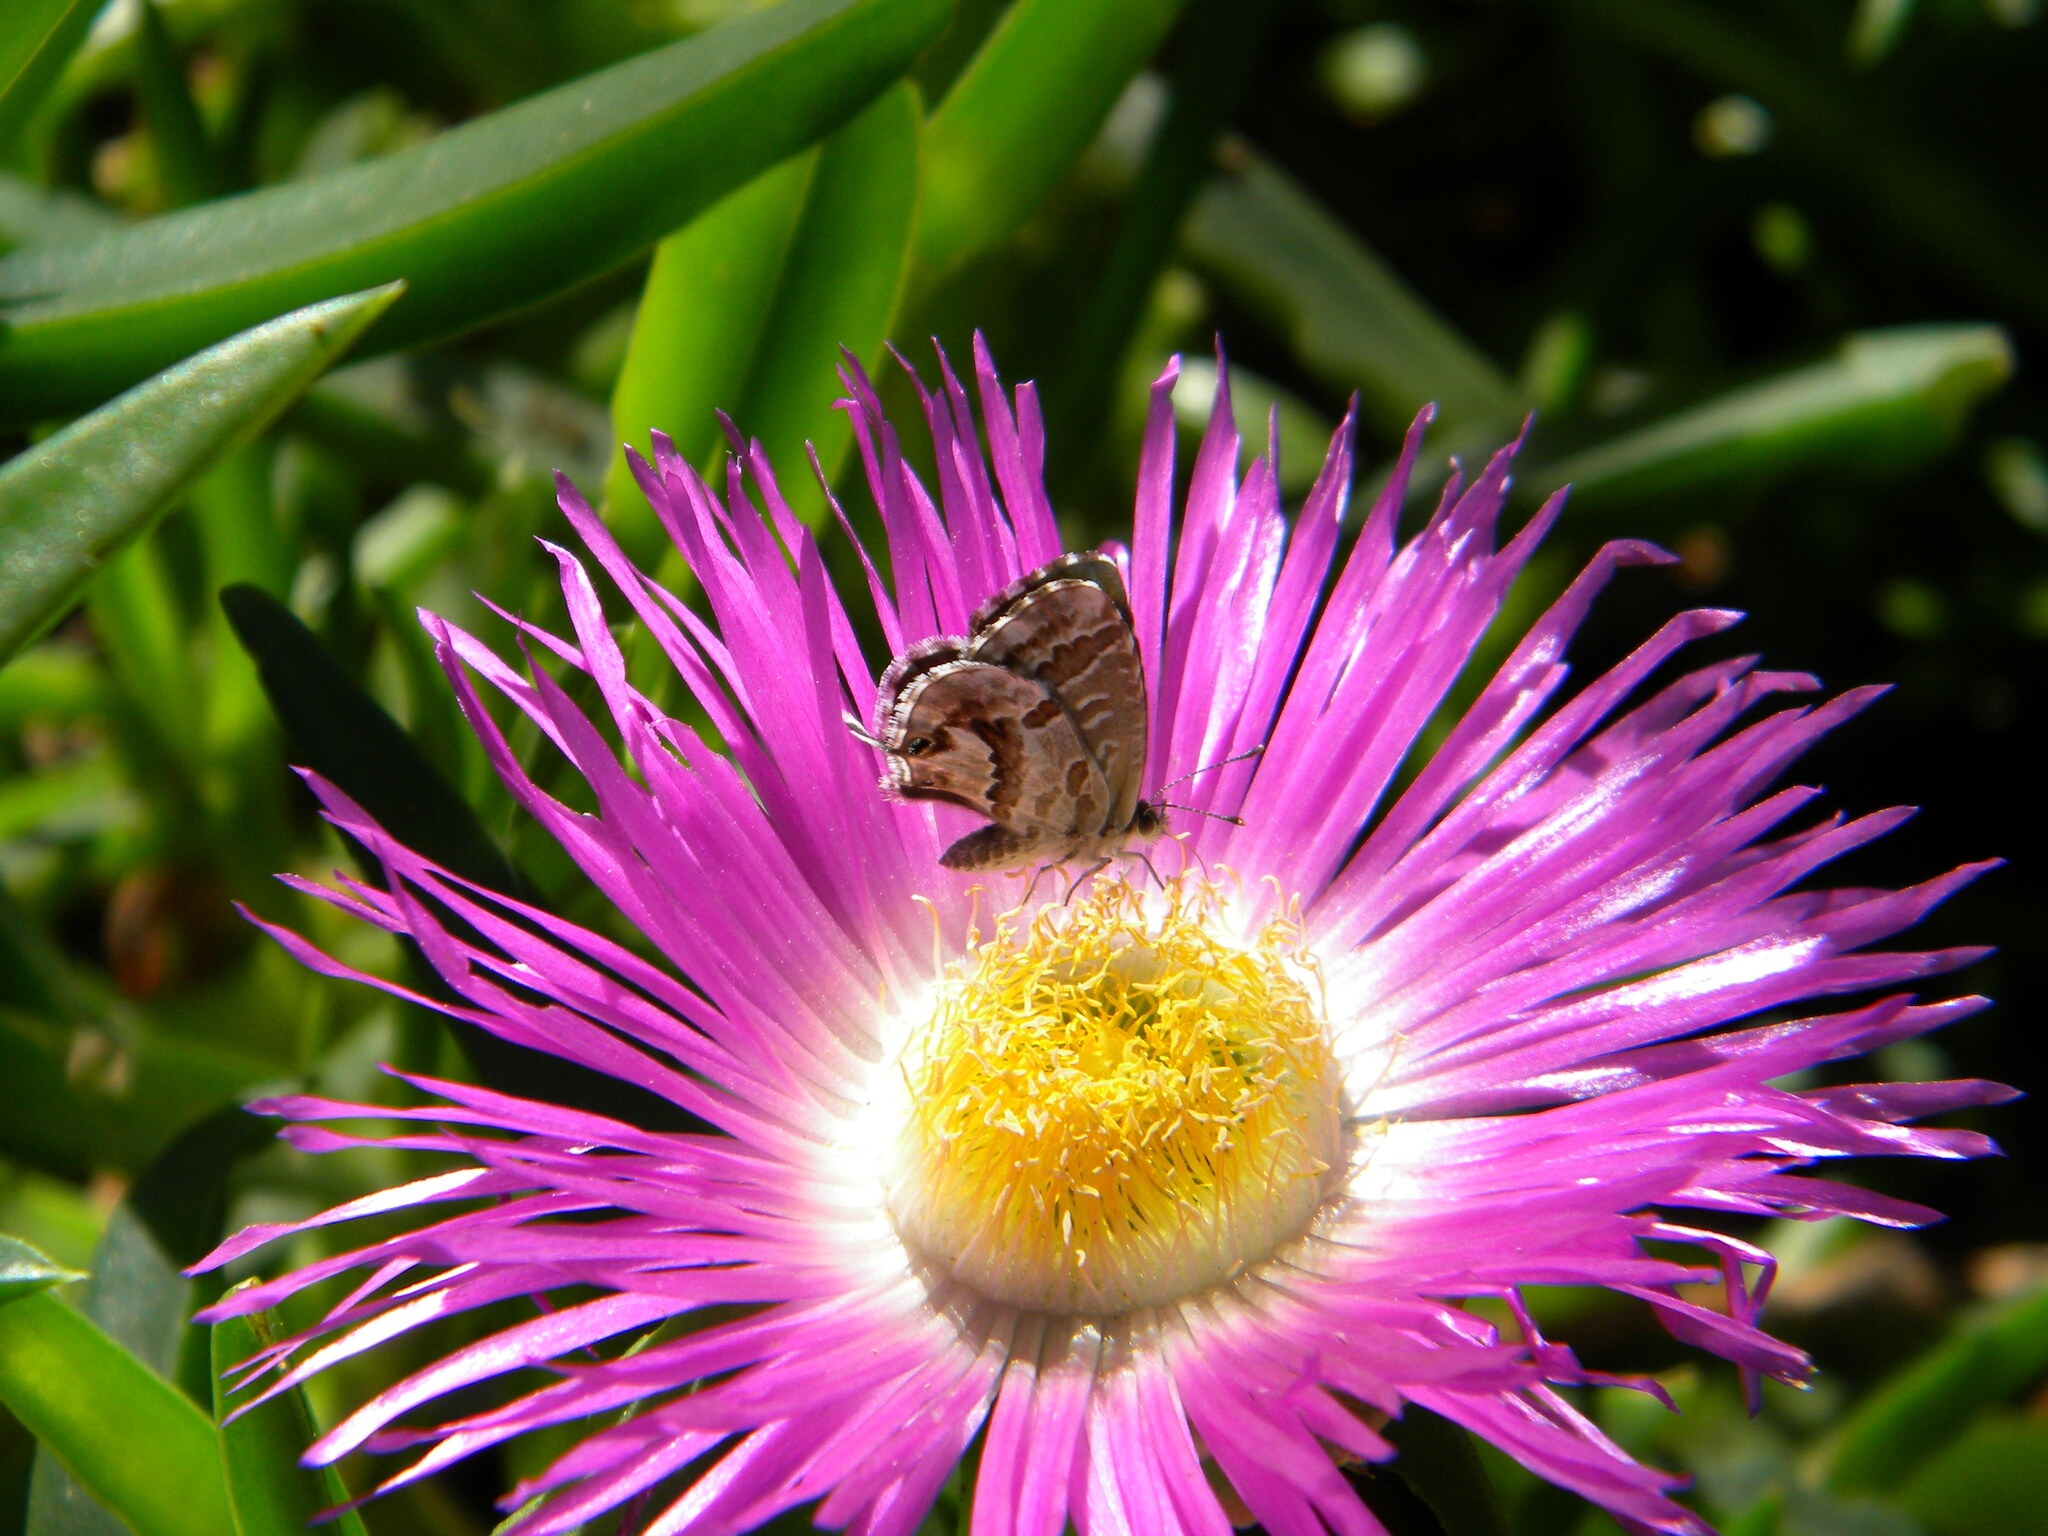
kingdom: Animalia
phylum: Arthropoda
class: Insecta
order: Lepidoptera
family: Lycaenidae
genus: Cacyreus
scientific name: Cacyreus marshalli
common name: Geranium bronze
